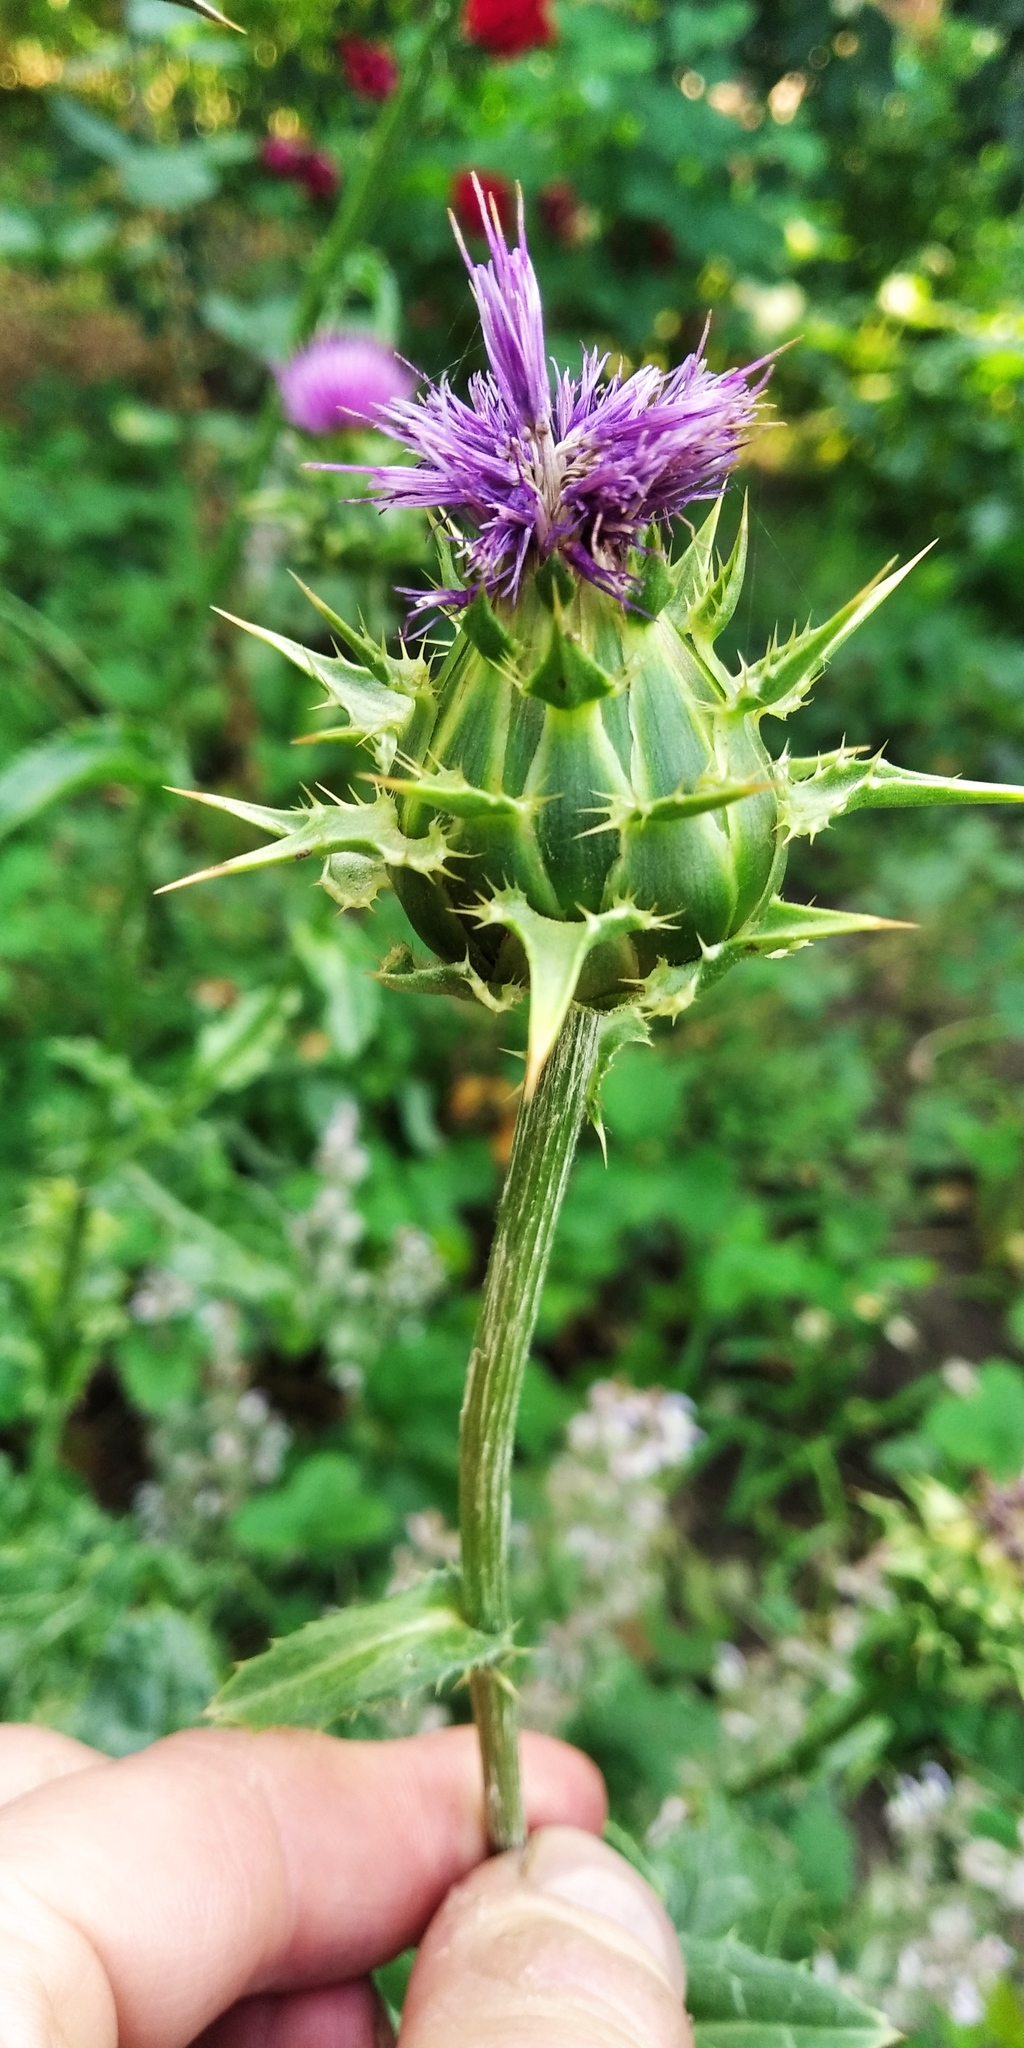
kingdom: Plantae
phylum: Tracheophyta
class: Magnoliopsida
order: Asterales
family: Asteraceae
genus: Silybum
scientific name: Silybum marianum
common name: Milk thistle
